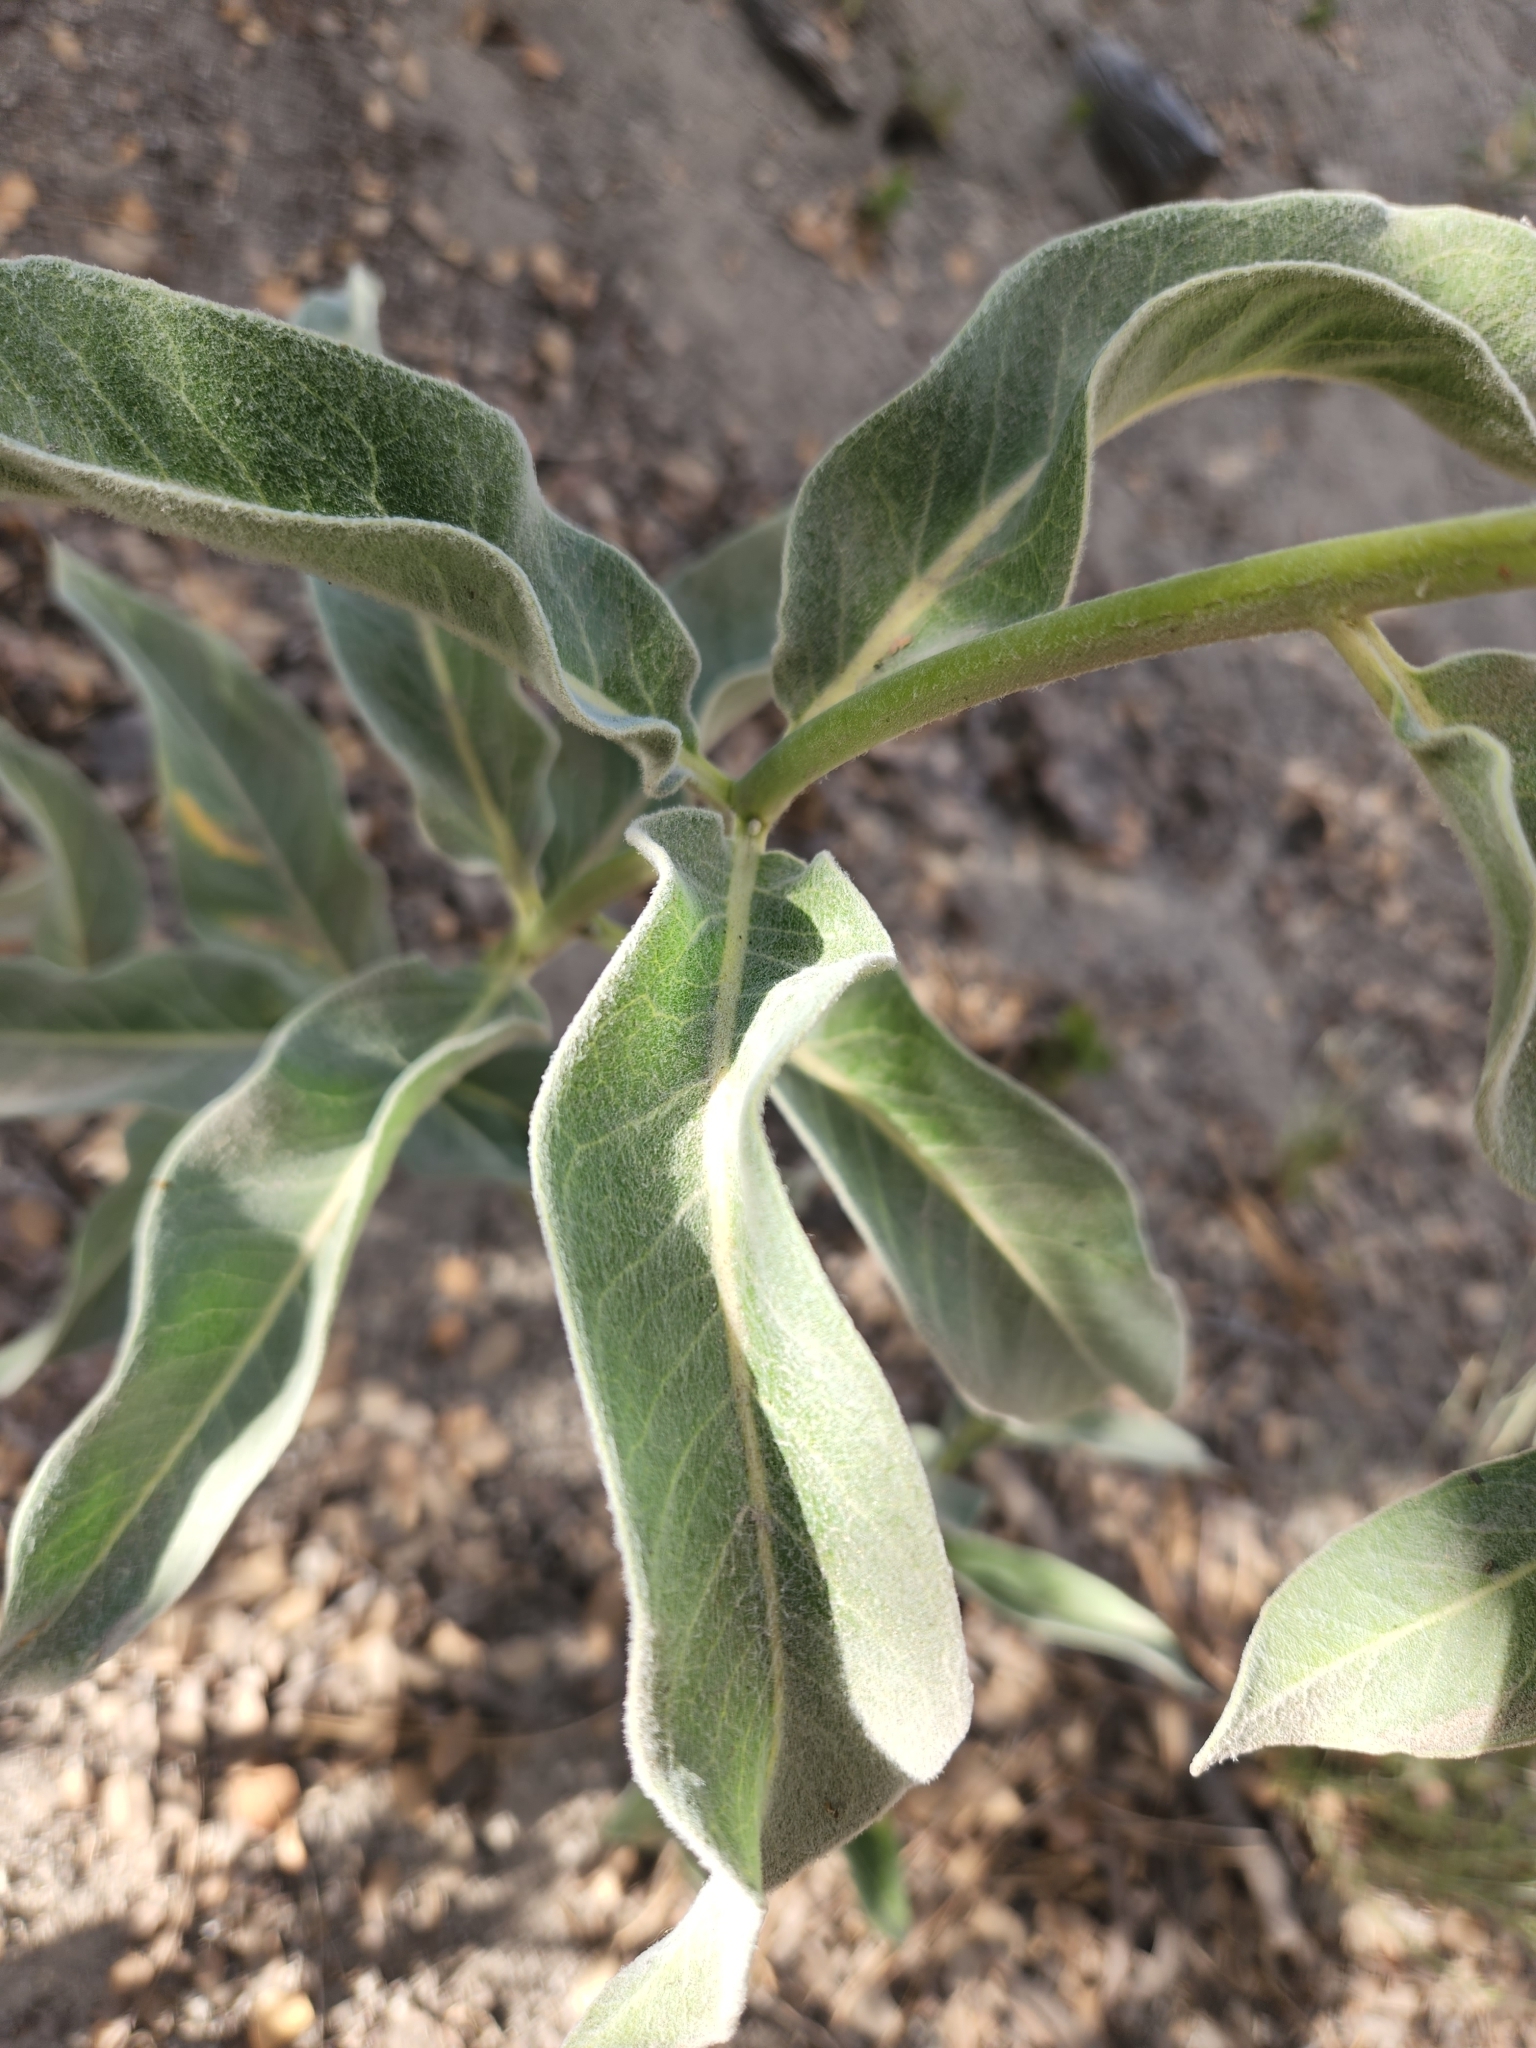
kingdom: Plantae
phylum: Tracheophyta
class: Magnoliopsida
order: Gentianales
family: Apocynaceae
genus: Asclepias
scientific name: Asclepias eriocarpa
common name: Indian milkweed
